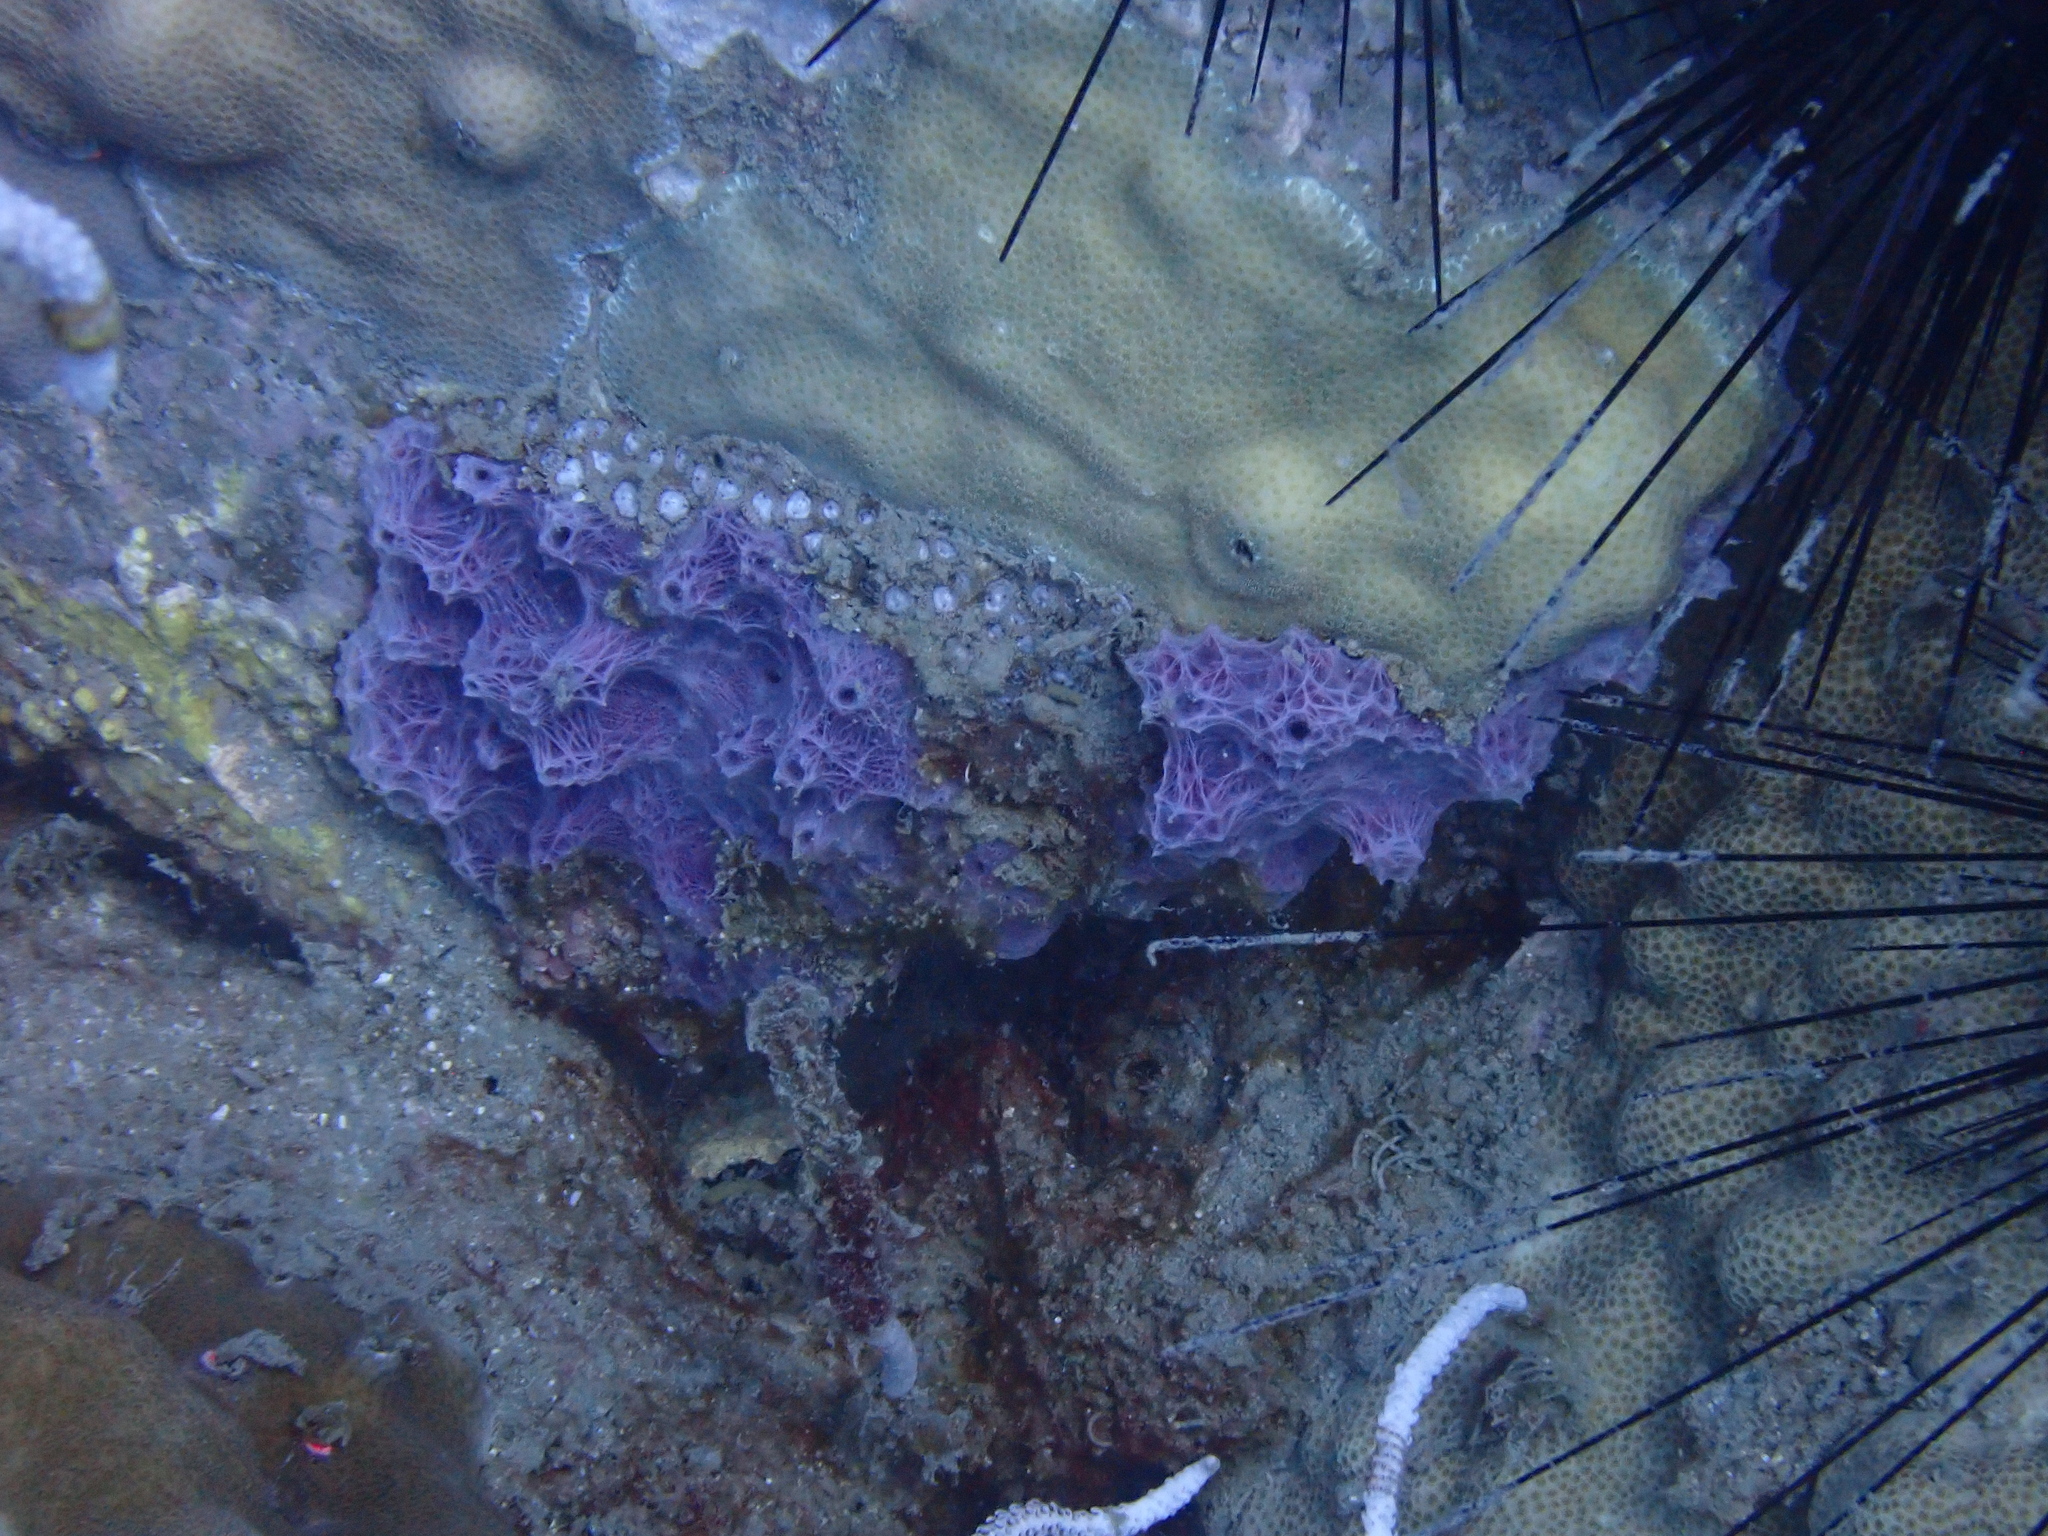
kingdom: Animalia
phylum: Porifera
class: Demospongiae
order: Haplosclerida
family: Chalinidae
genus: Chalinula
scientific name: Chalinula nematifera
